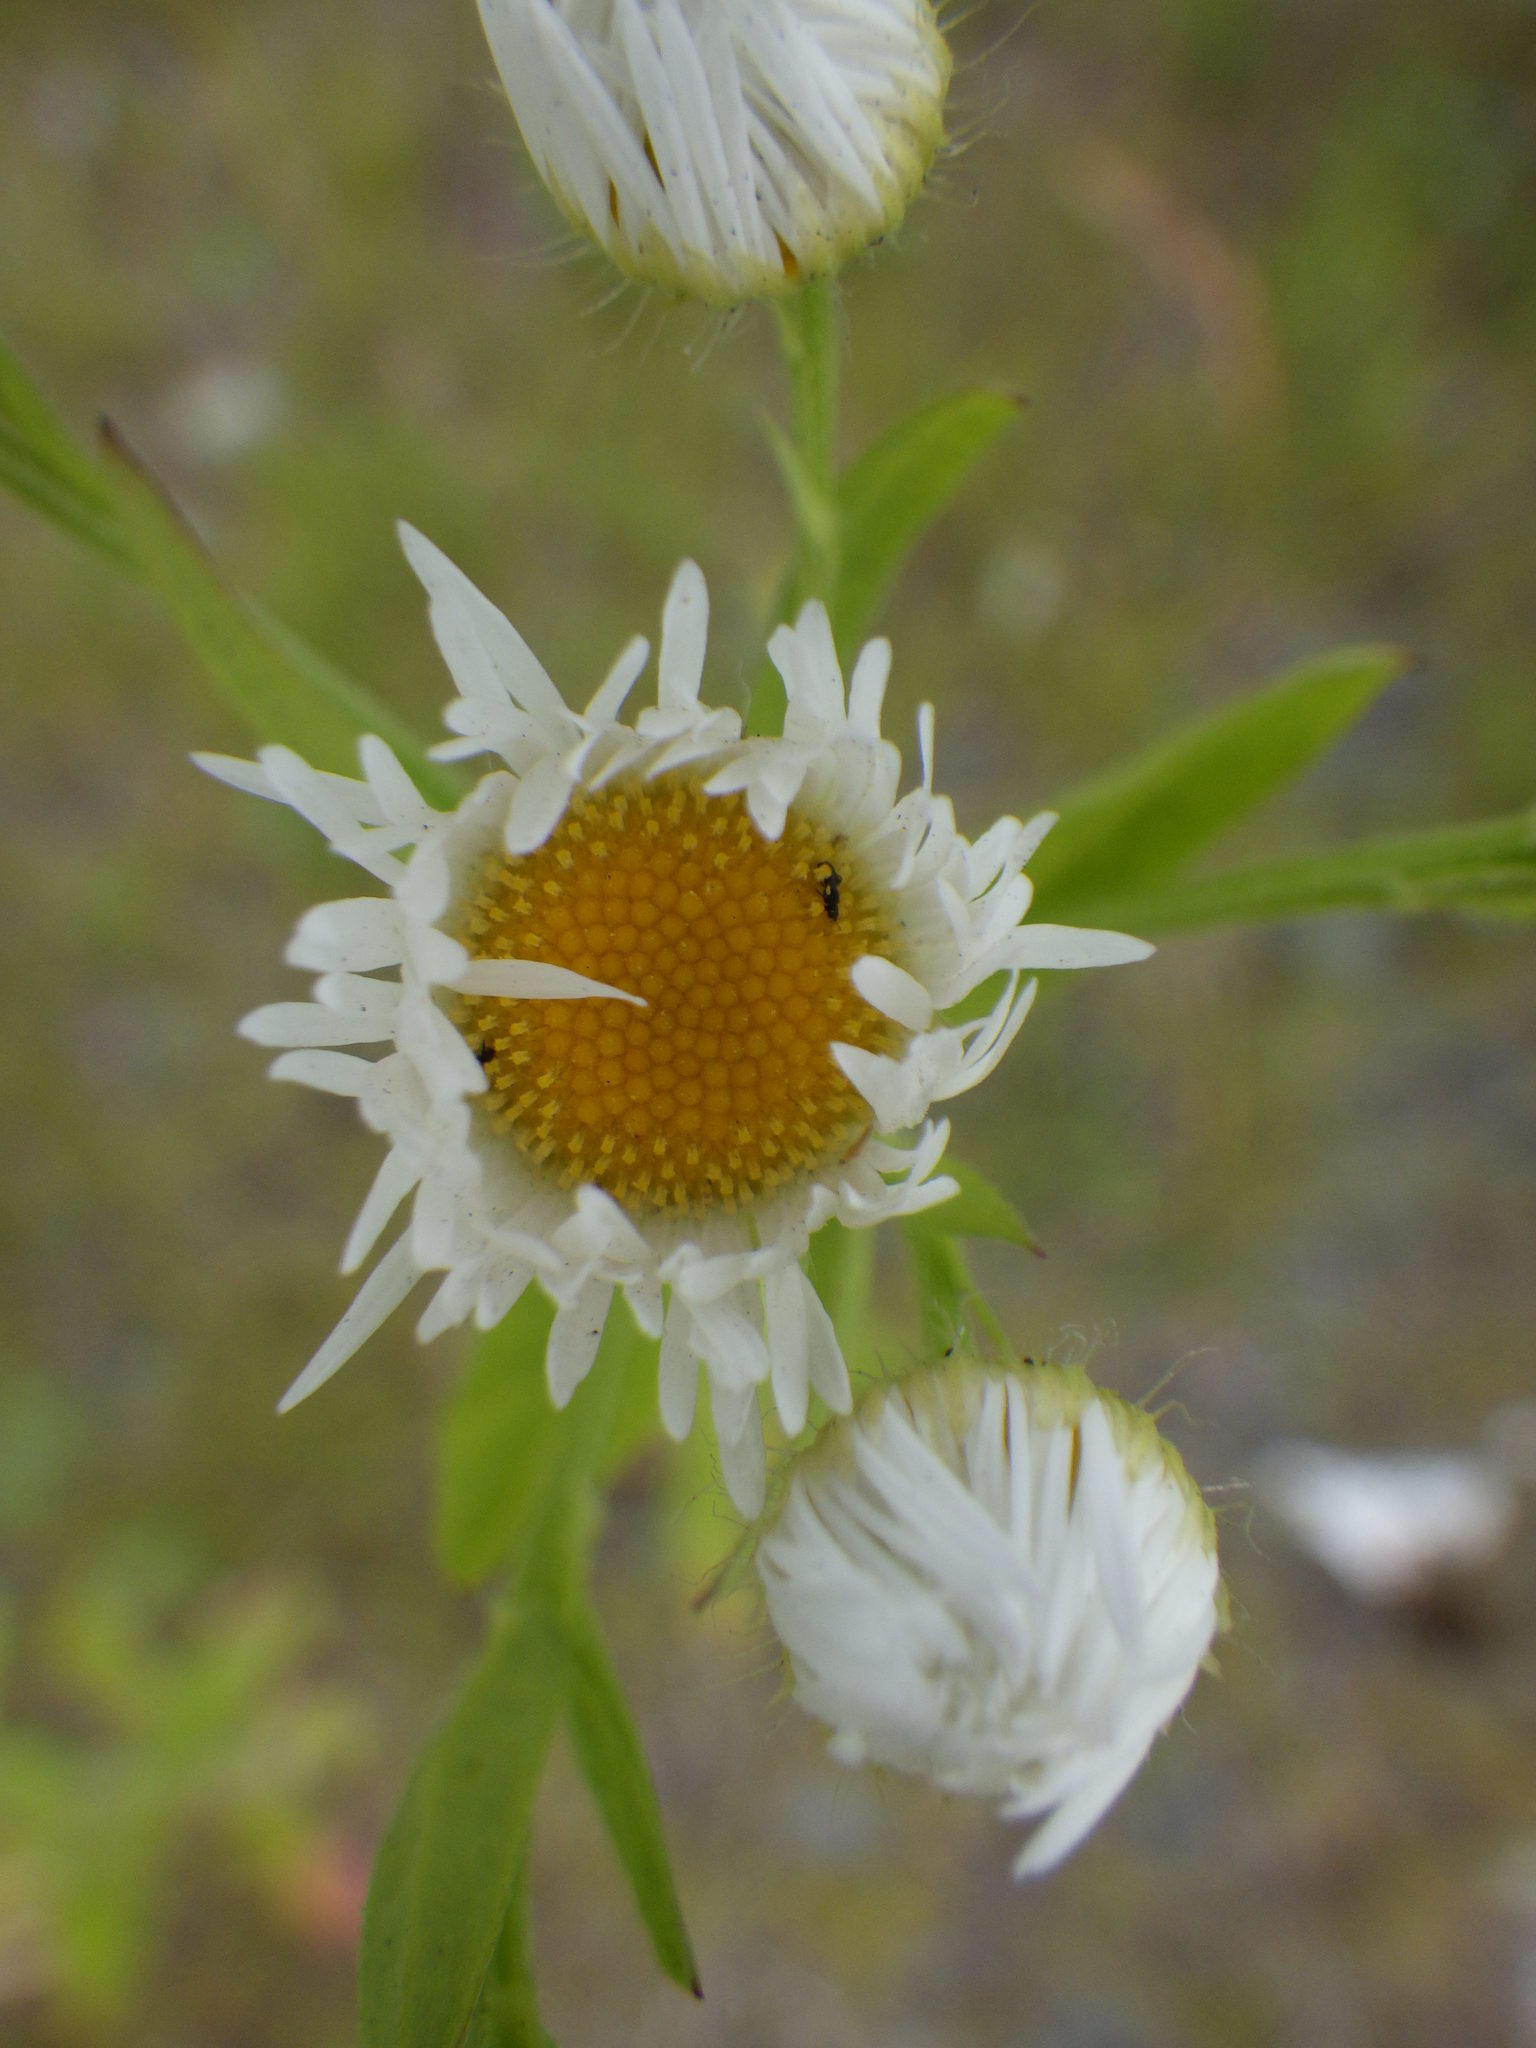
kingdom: Plantae
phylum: Tracheophyta
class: Magnoliopsida
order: Asterales
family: Asteraceae
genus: Erigeron
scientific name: Erigeron strigosus
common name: Common eastern fleabane
